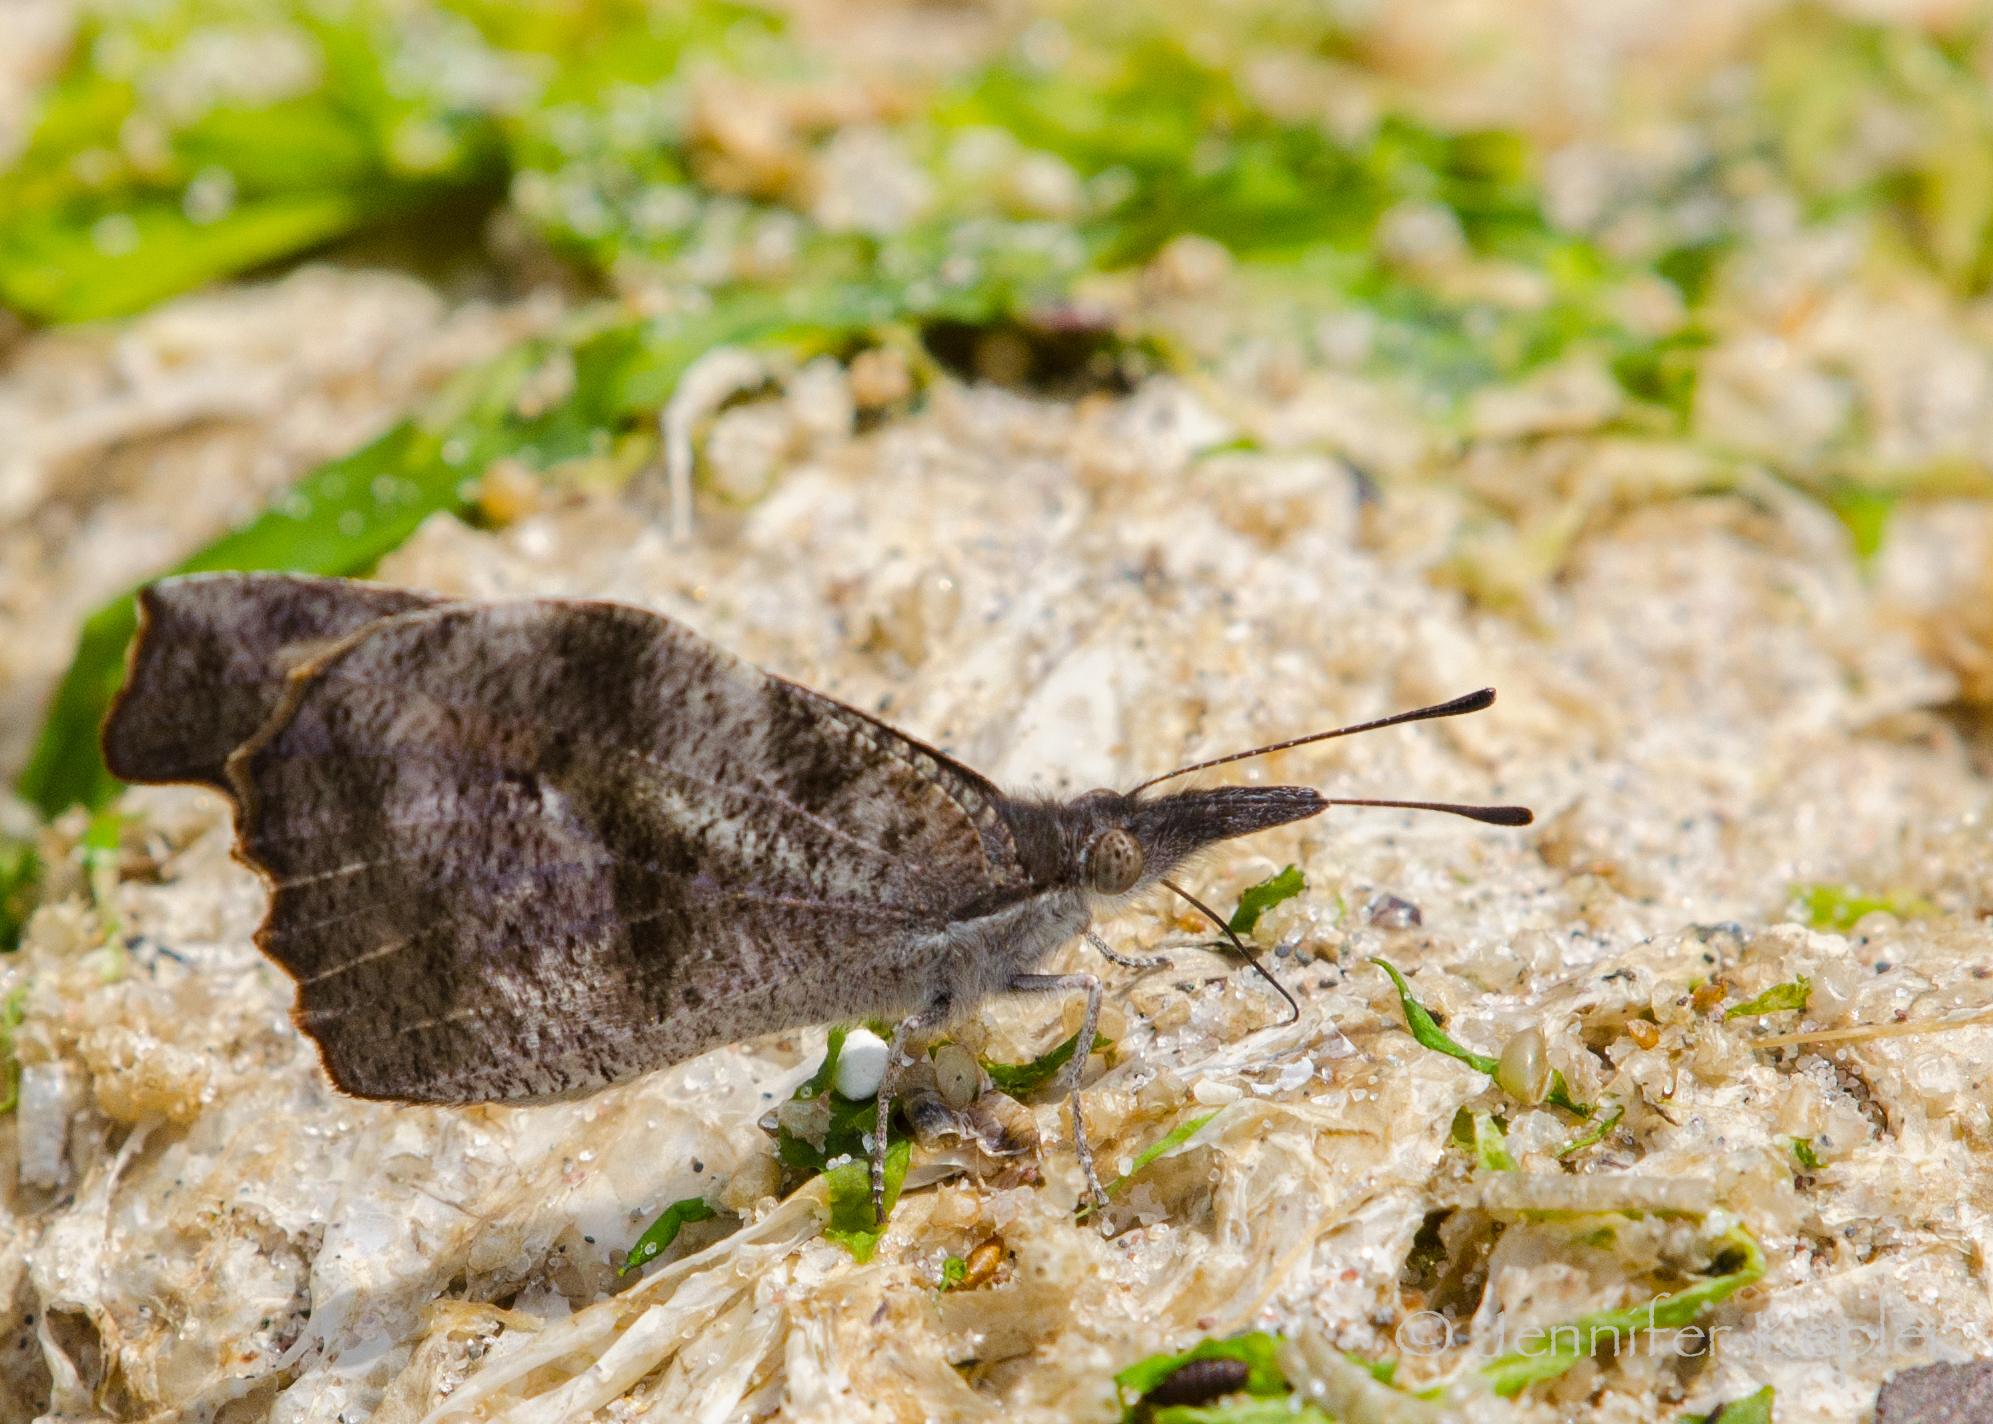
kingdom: Animalia
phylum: Arthropoda
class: Insecta
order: Lepidoptera
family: Nymphalidae
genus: Libytheana
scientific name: Libytheana carinenta
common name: American snout
